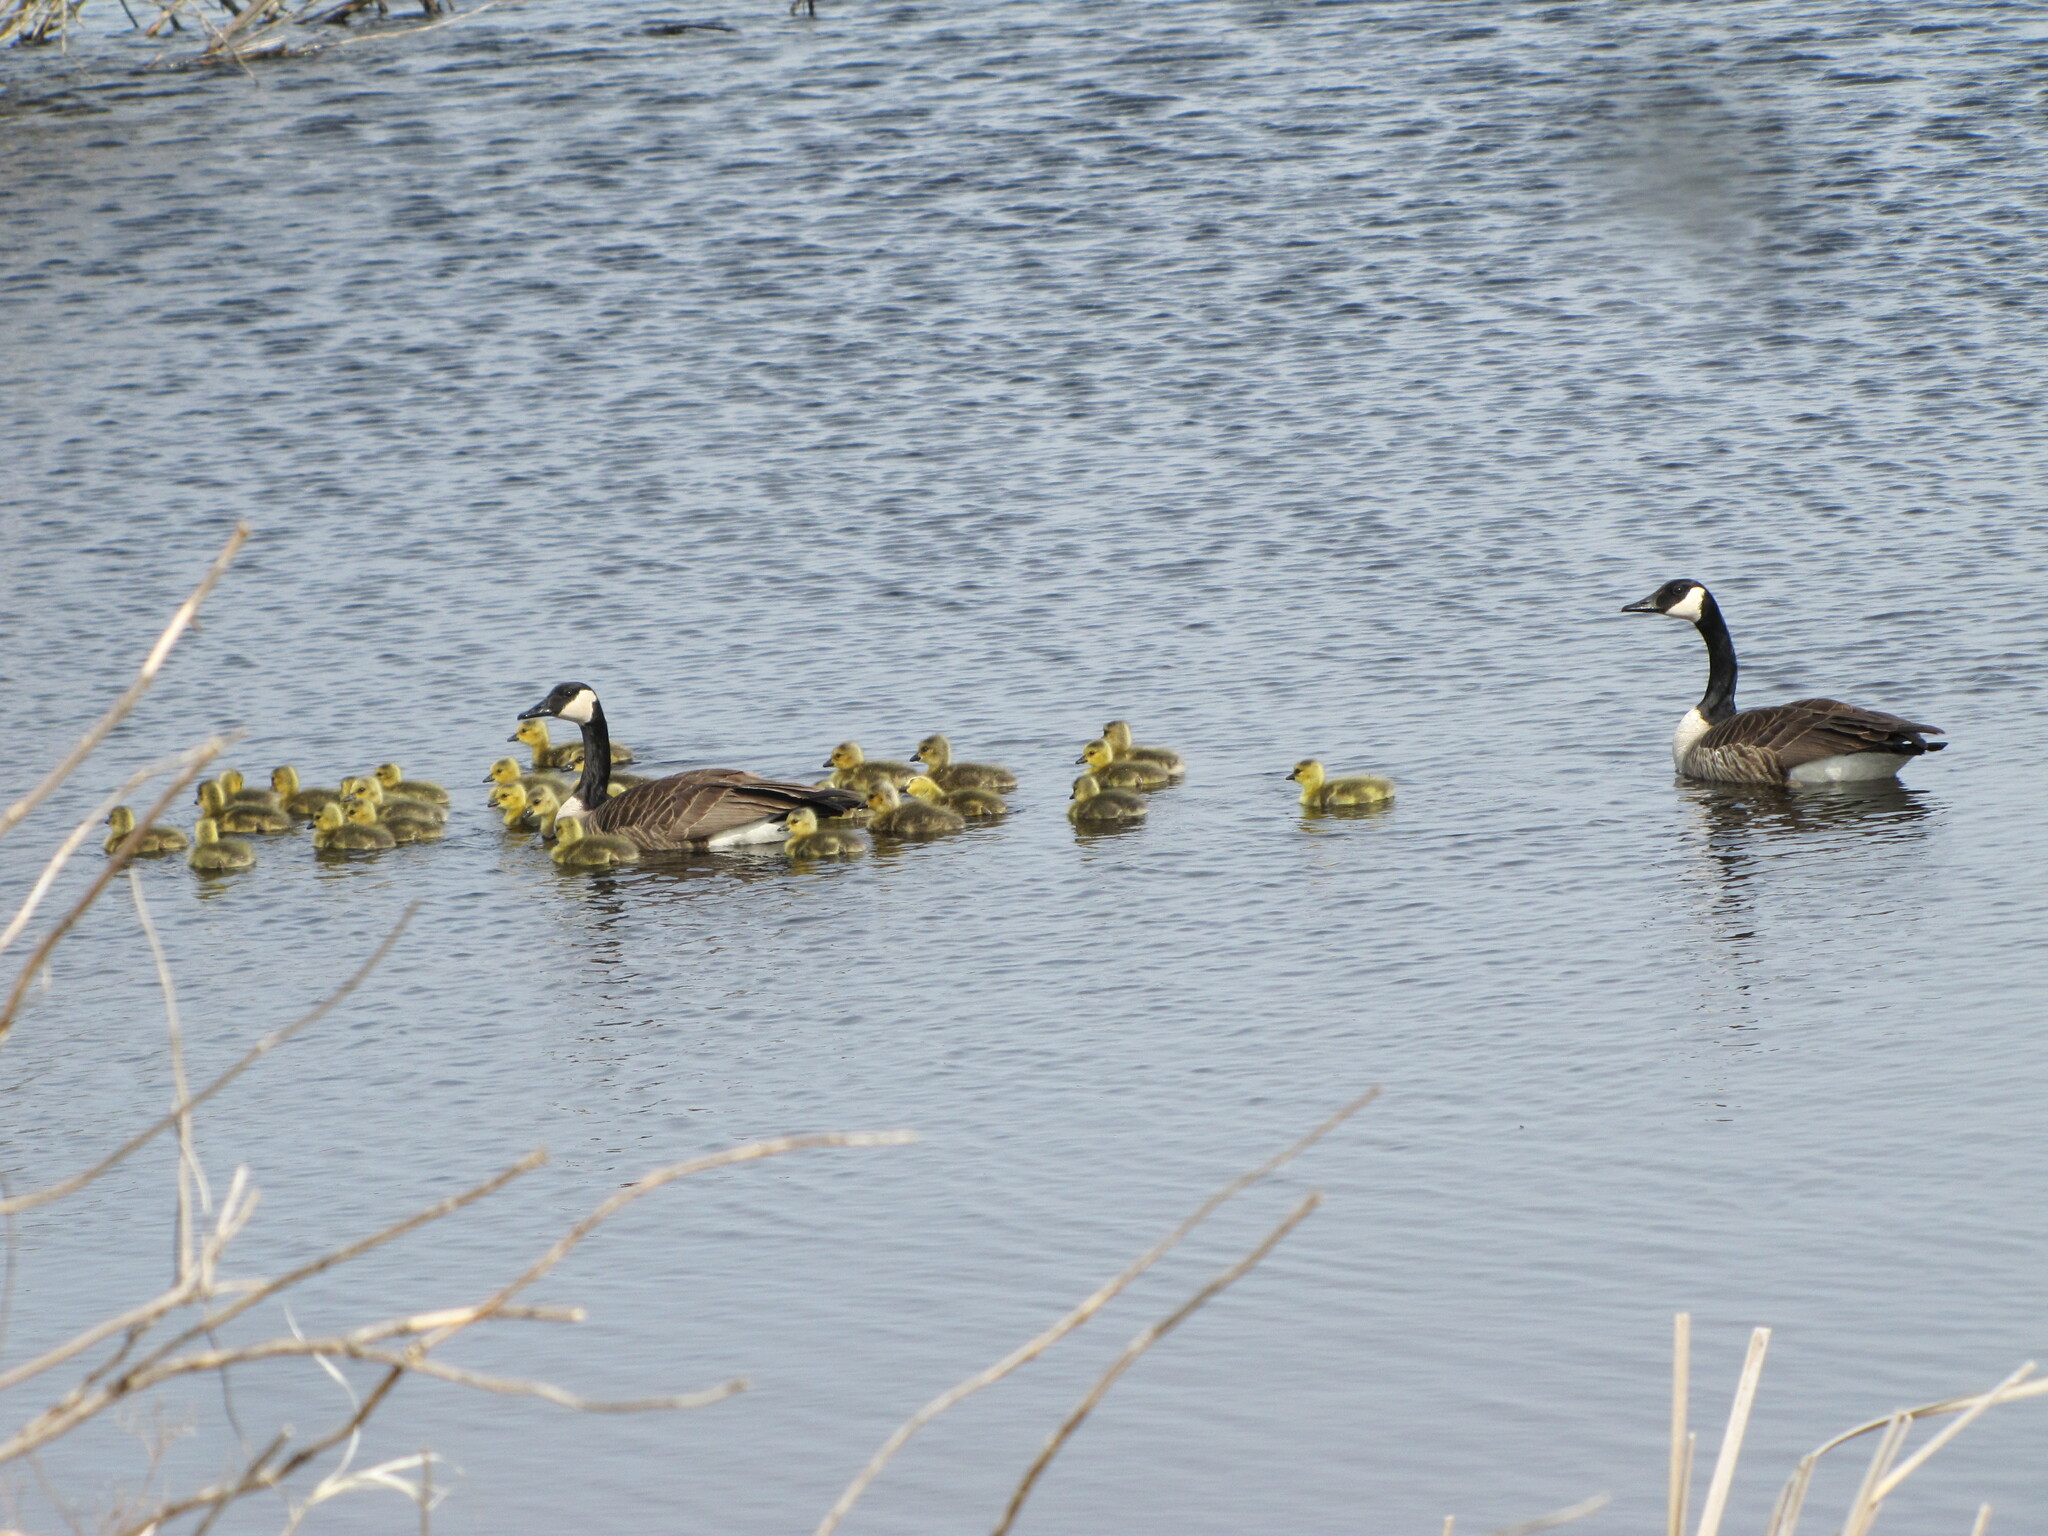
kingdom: Animalia
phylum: Chordata
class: Aves
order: Anseriformes
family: Anatidae
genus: Branta
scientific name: Branta canadensis
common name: Canada goose
